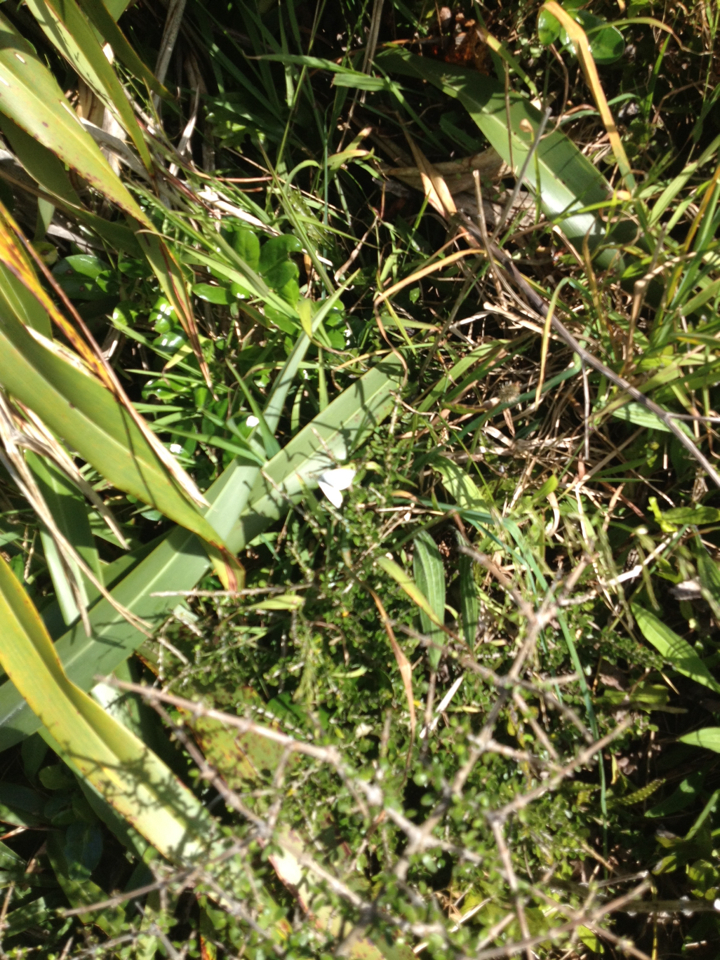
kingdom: Animalia
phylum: Arthropoda
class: Insecta
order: Lepidoptera
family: Pieridae
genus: Pieris
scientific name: Pieris rapae
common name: Small white
